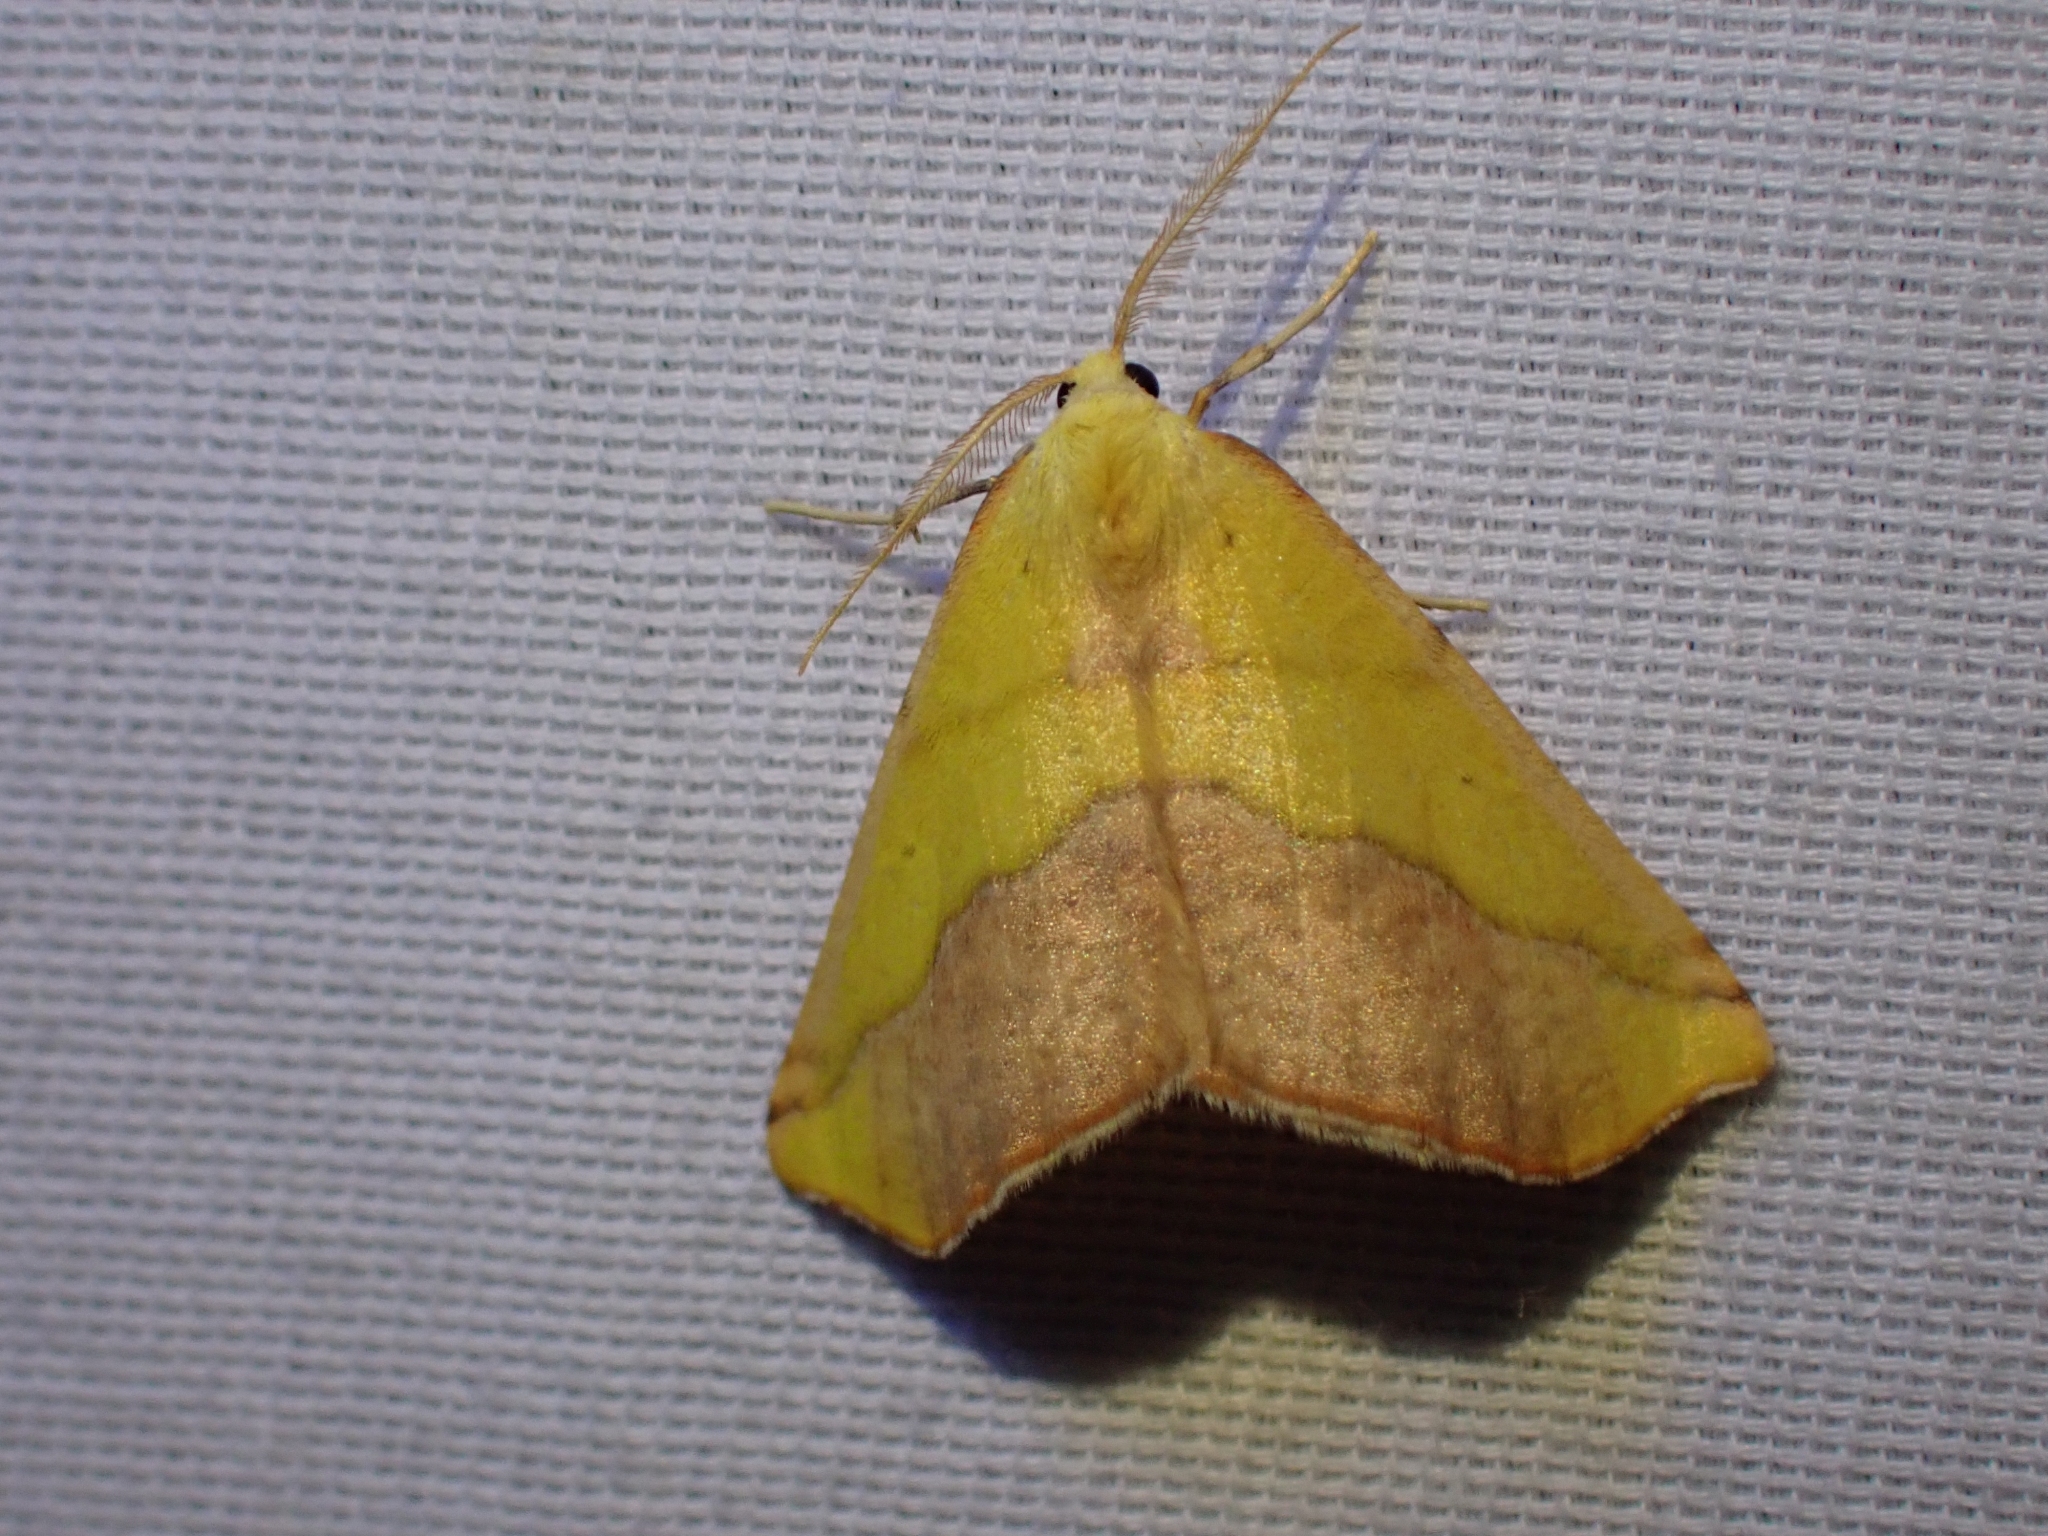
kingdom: Animalia
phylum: Arthropoda
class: Insecta
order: Lepidoptera
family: Geometridae
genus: Sicya
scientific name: Sicya macularia
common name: Sharp-lined yellow
